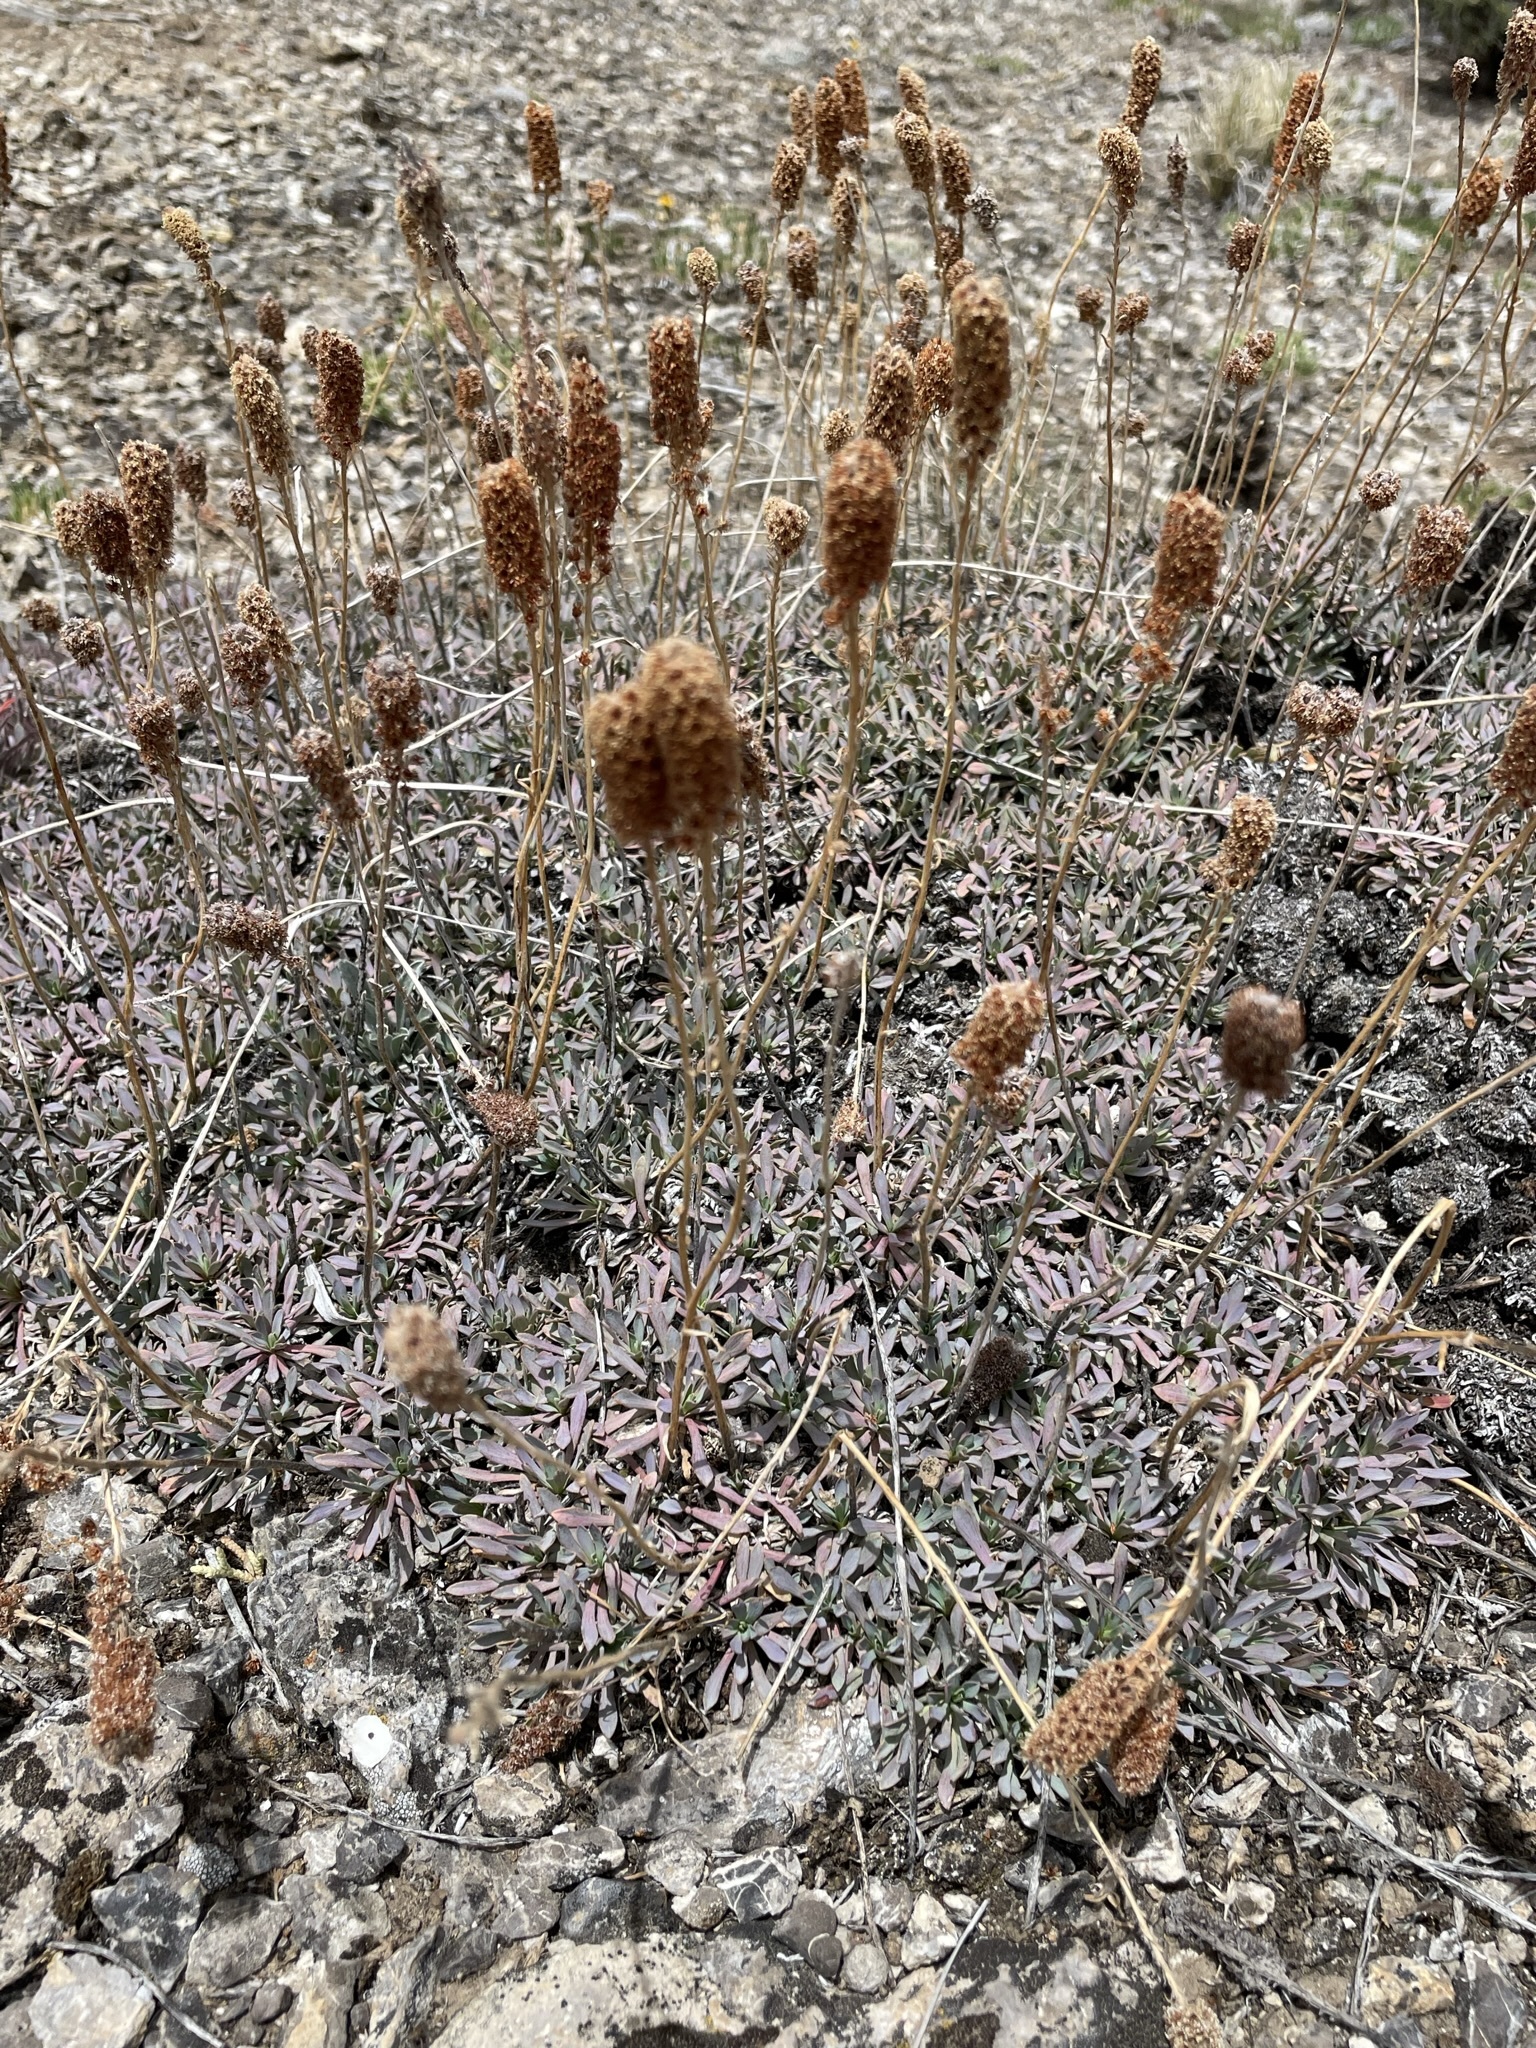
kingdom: Plantae
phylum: Tracheophyta
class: Magnoliopsida
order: Rosales
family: Rosaceae
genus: Petrophytum
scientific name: Petrophytum caespitosum
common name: Mat rockspirea
